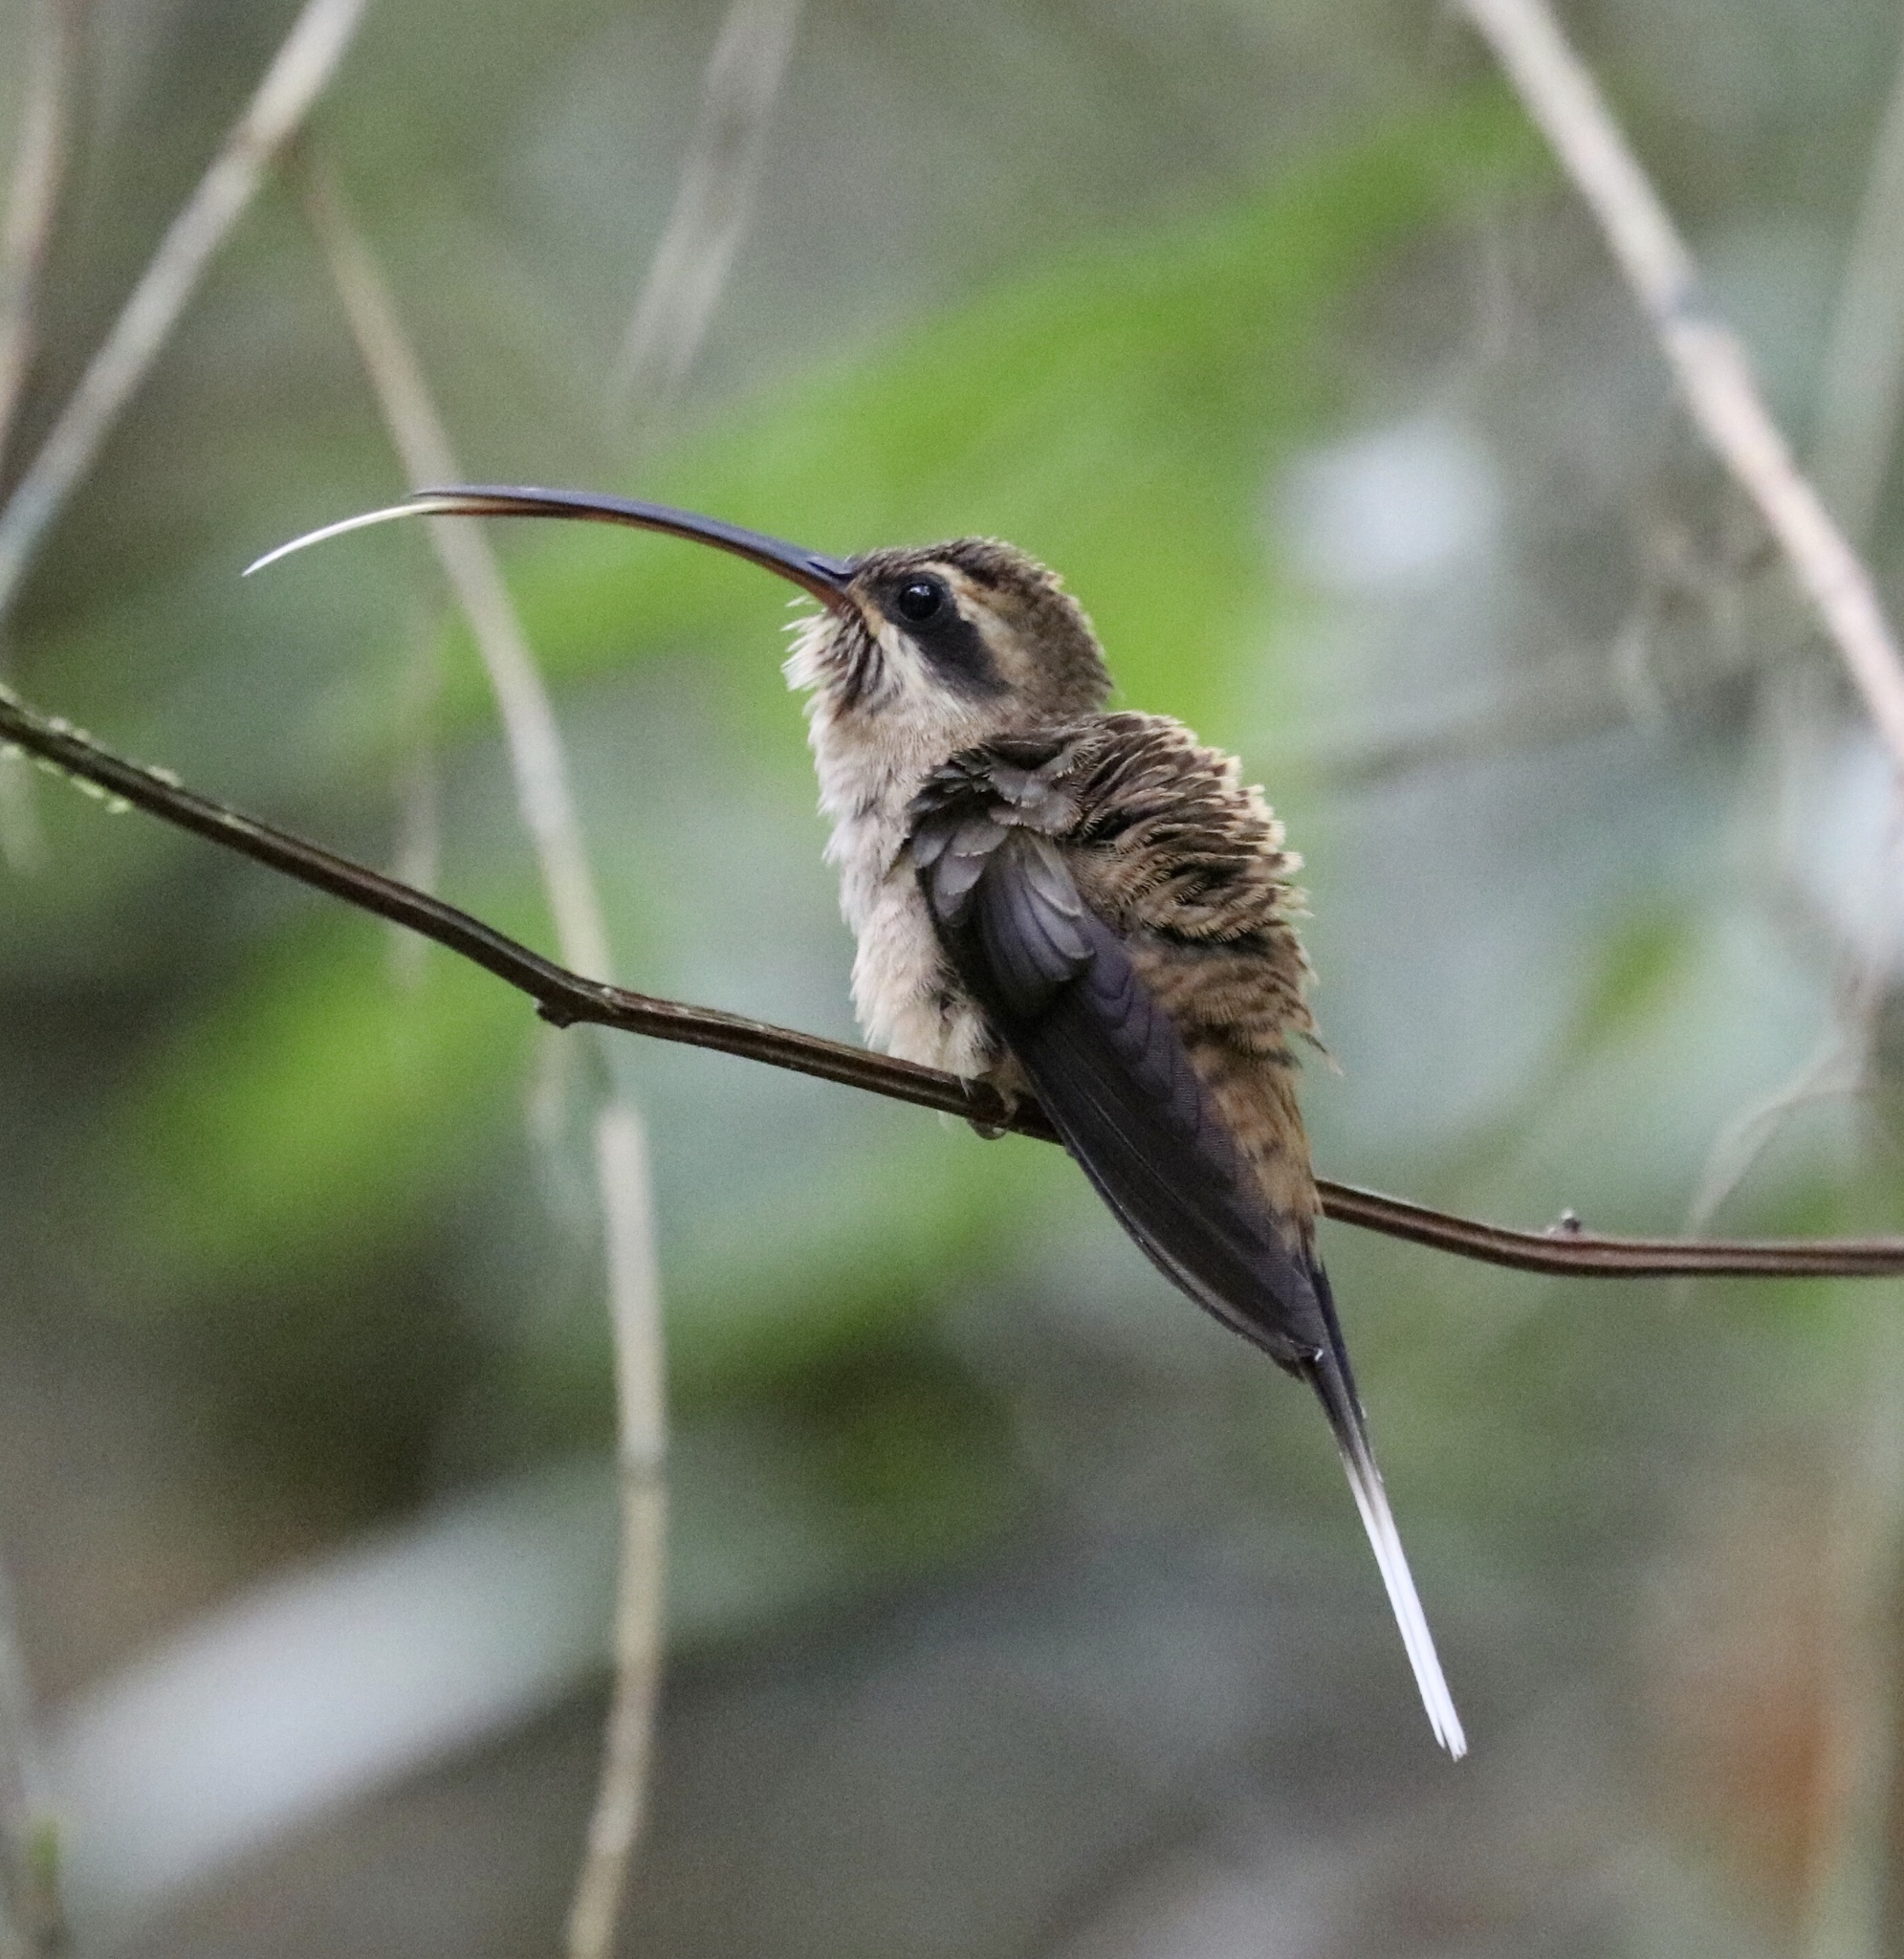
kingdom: Animalia
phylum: Chordata
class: Aves
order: Apodiformes
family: Trochilidae
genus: Phaethornis
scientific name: Phaethornis longirostris
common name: Long-billed hermit
